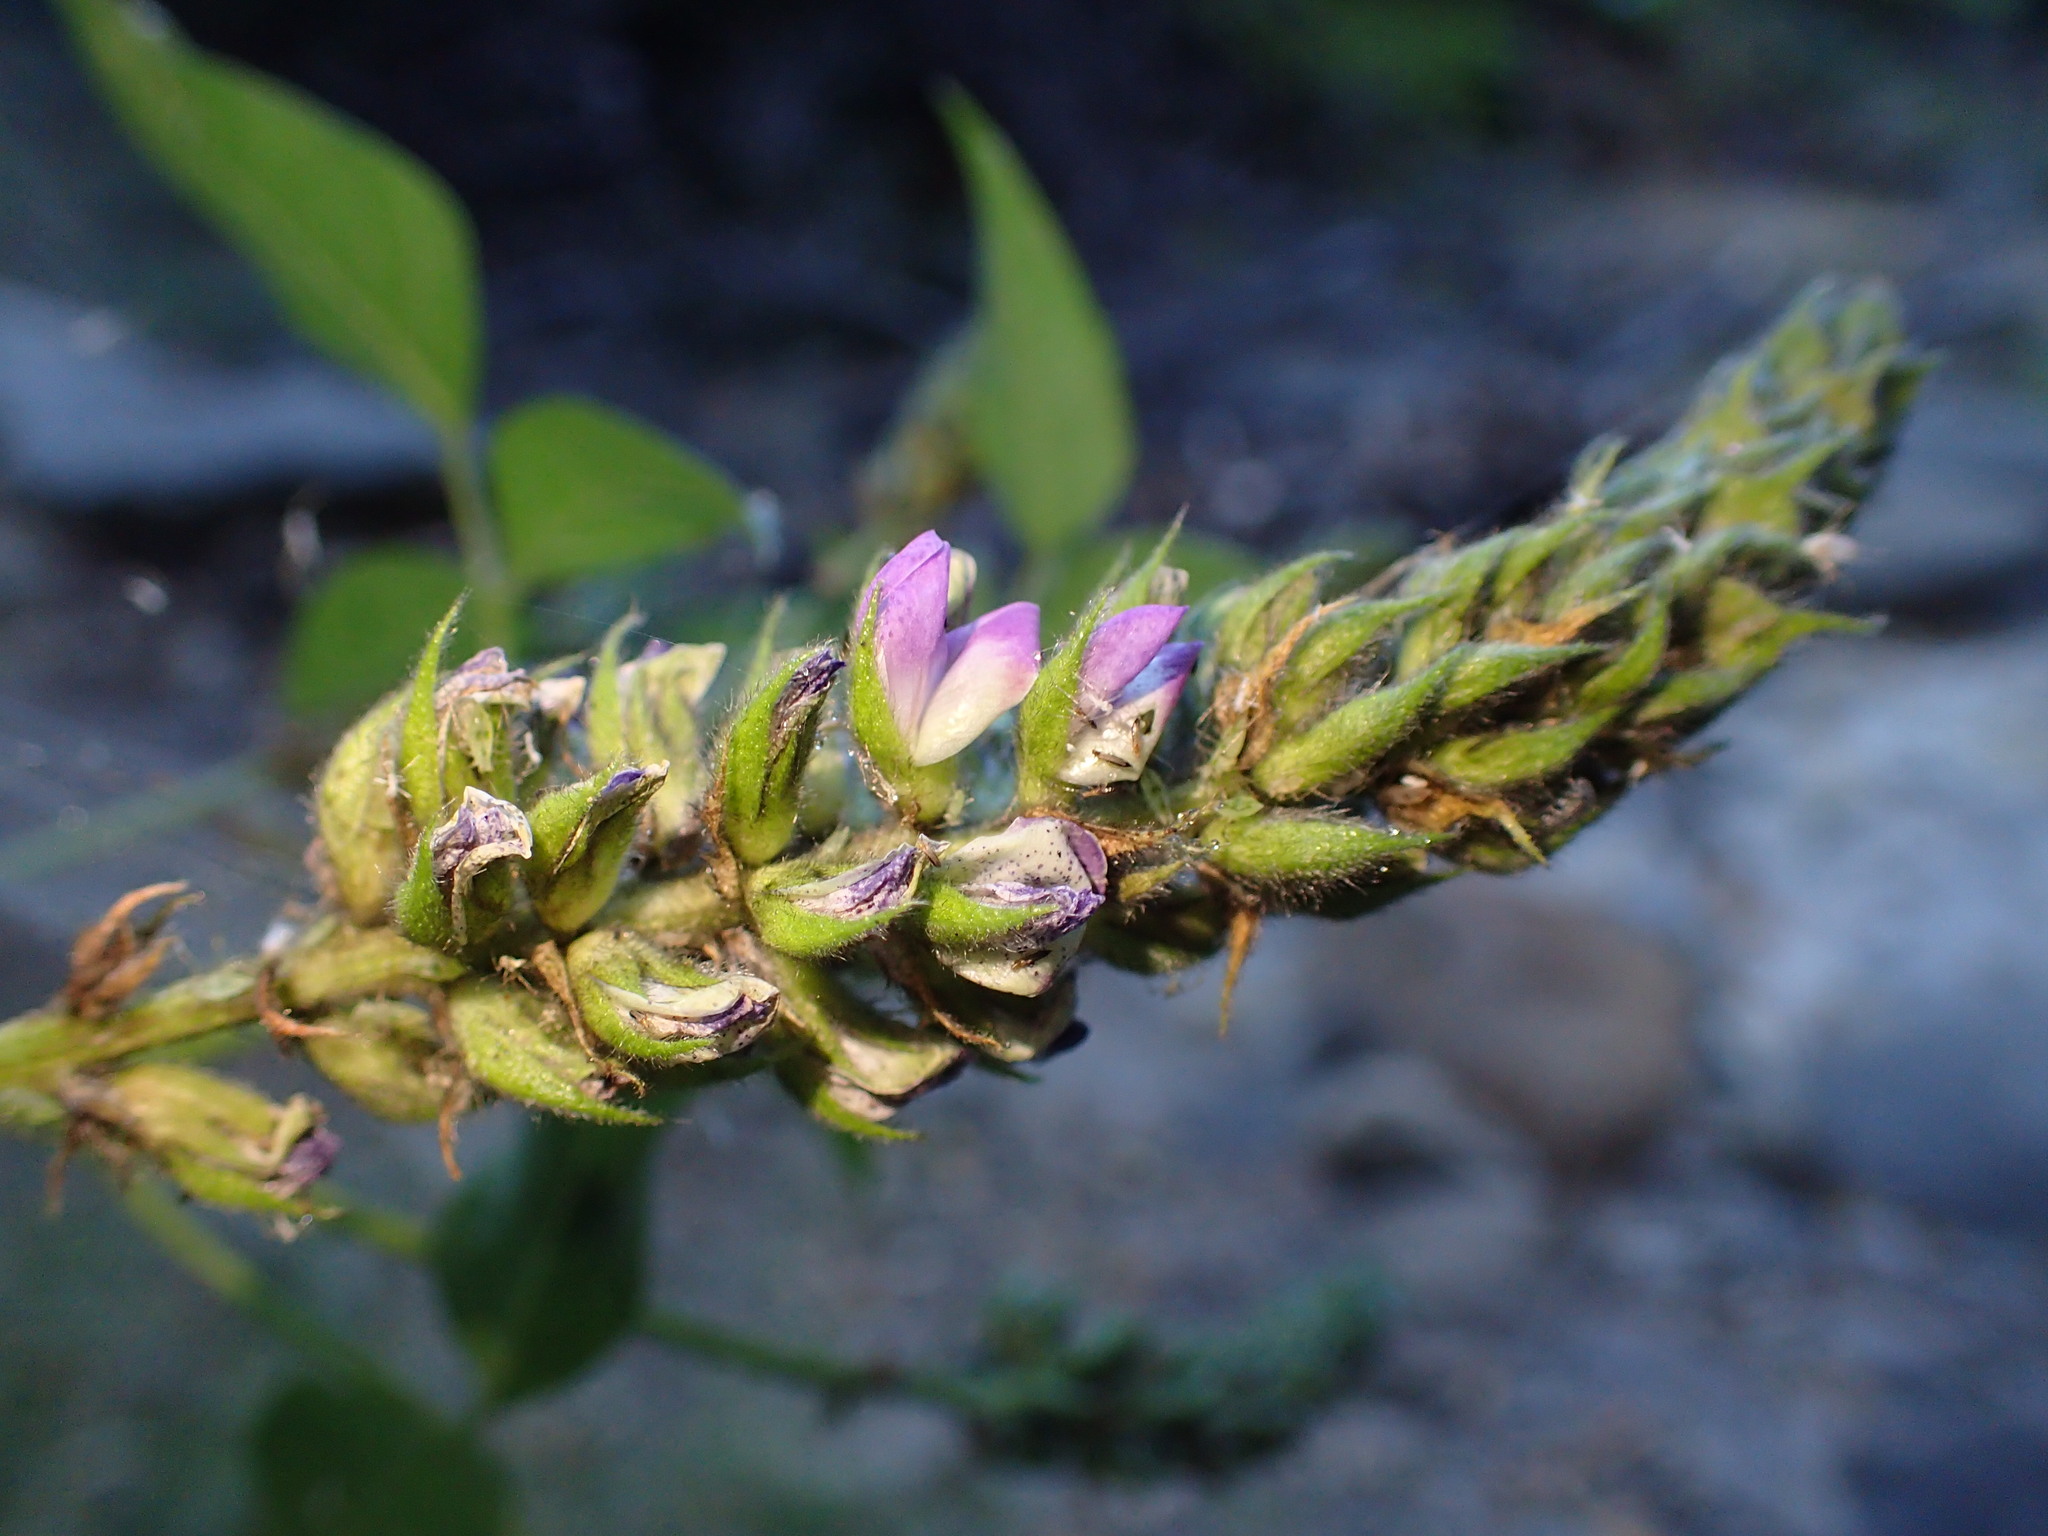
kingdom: Plantae
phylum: Tracheophyta
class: Magnoliopsida
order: Fabales
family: Fabaceae
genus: Hoita
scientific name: Hoita macrostachya
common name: Leatherroot
